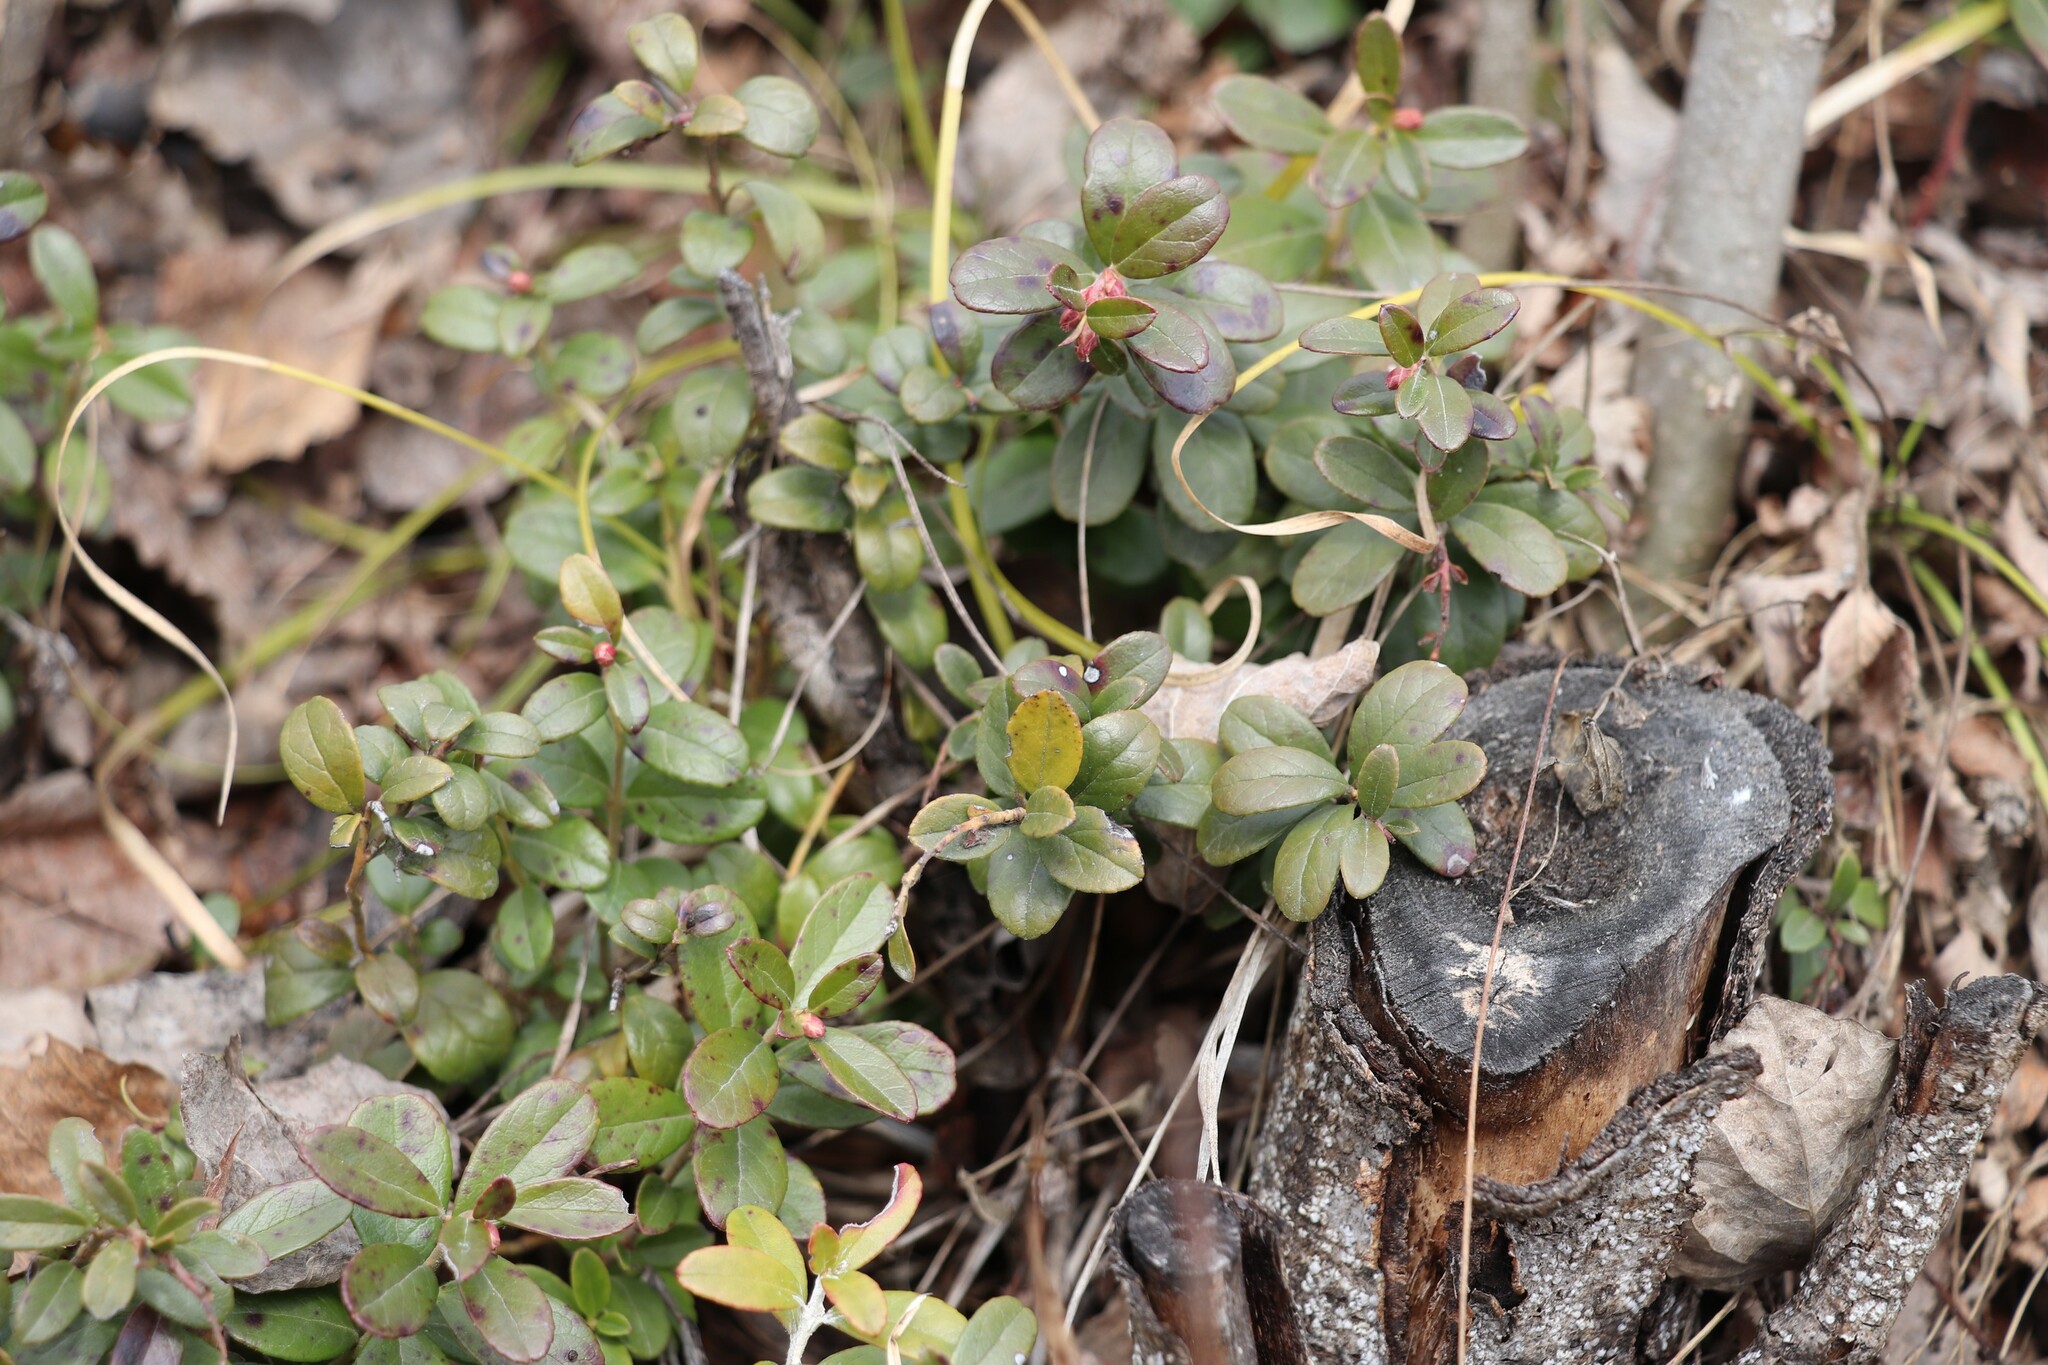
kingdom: Plantae
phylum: Tracheophyta
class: Magnoliopsida
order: Ericales
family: Ericaceae
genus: Vaccinium
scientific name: Vaccinium vitis-idaea
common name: Cowberry
